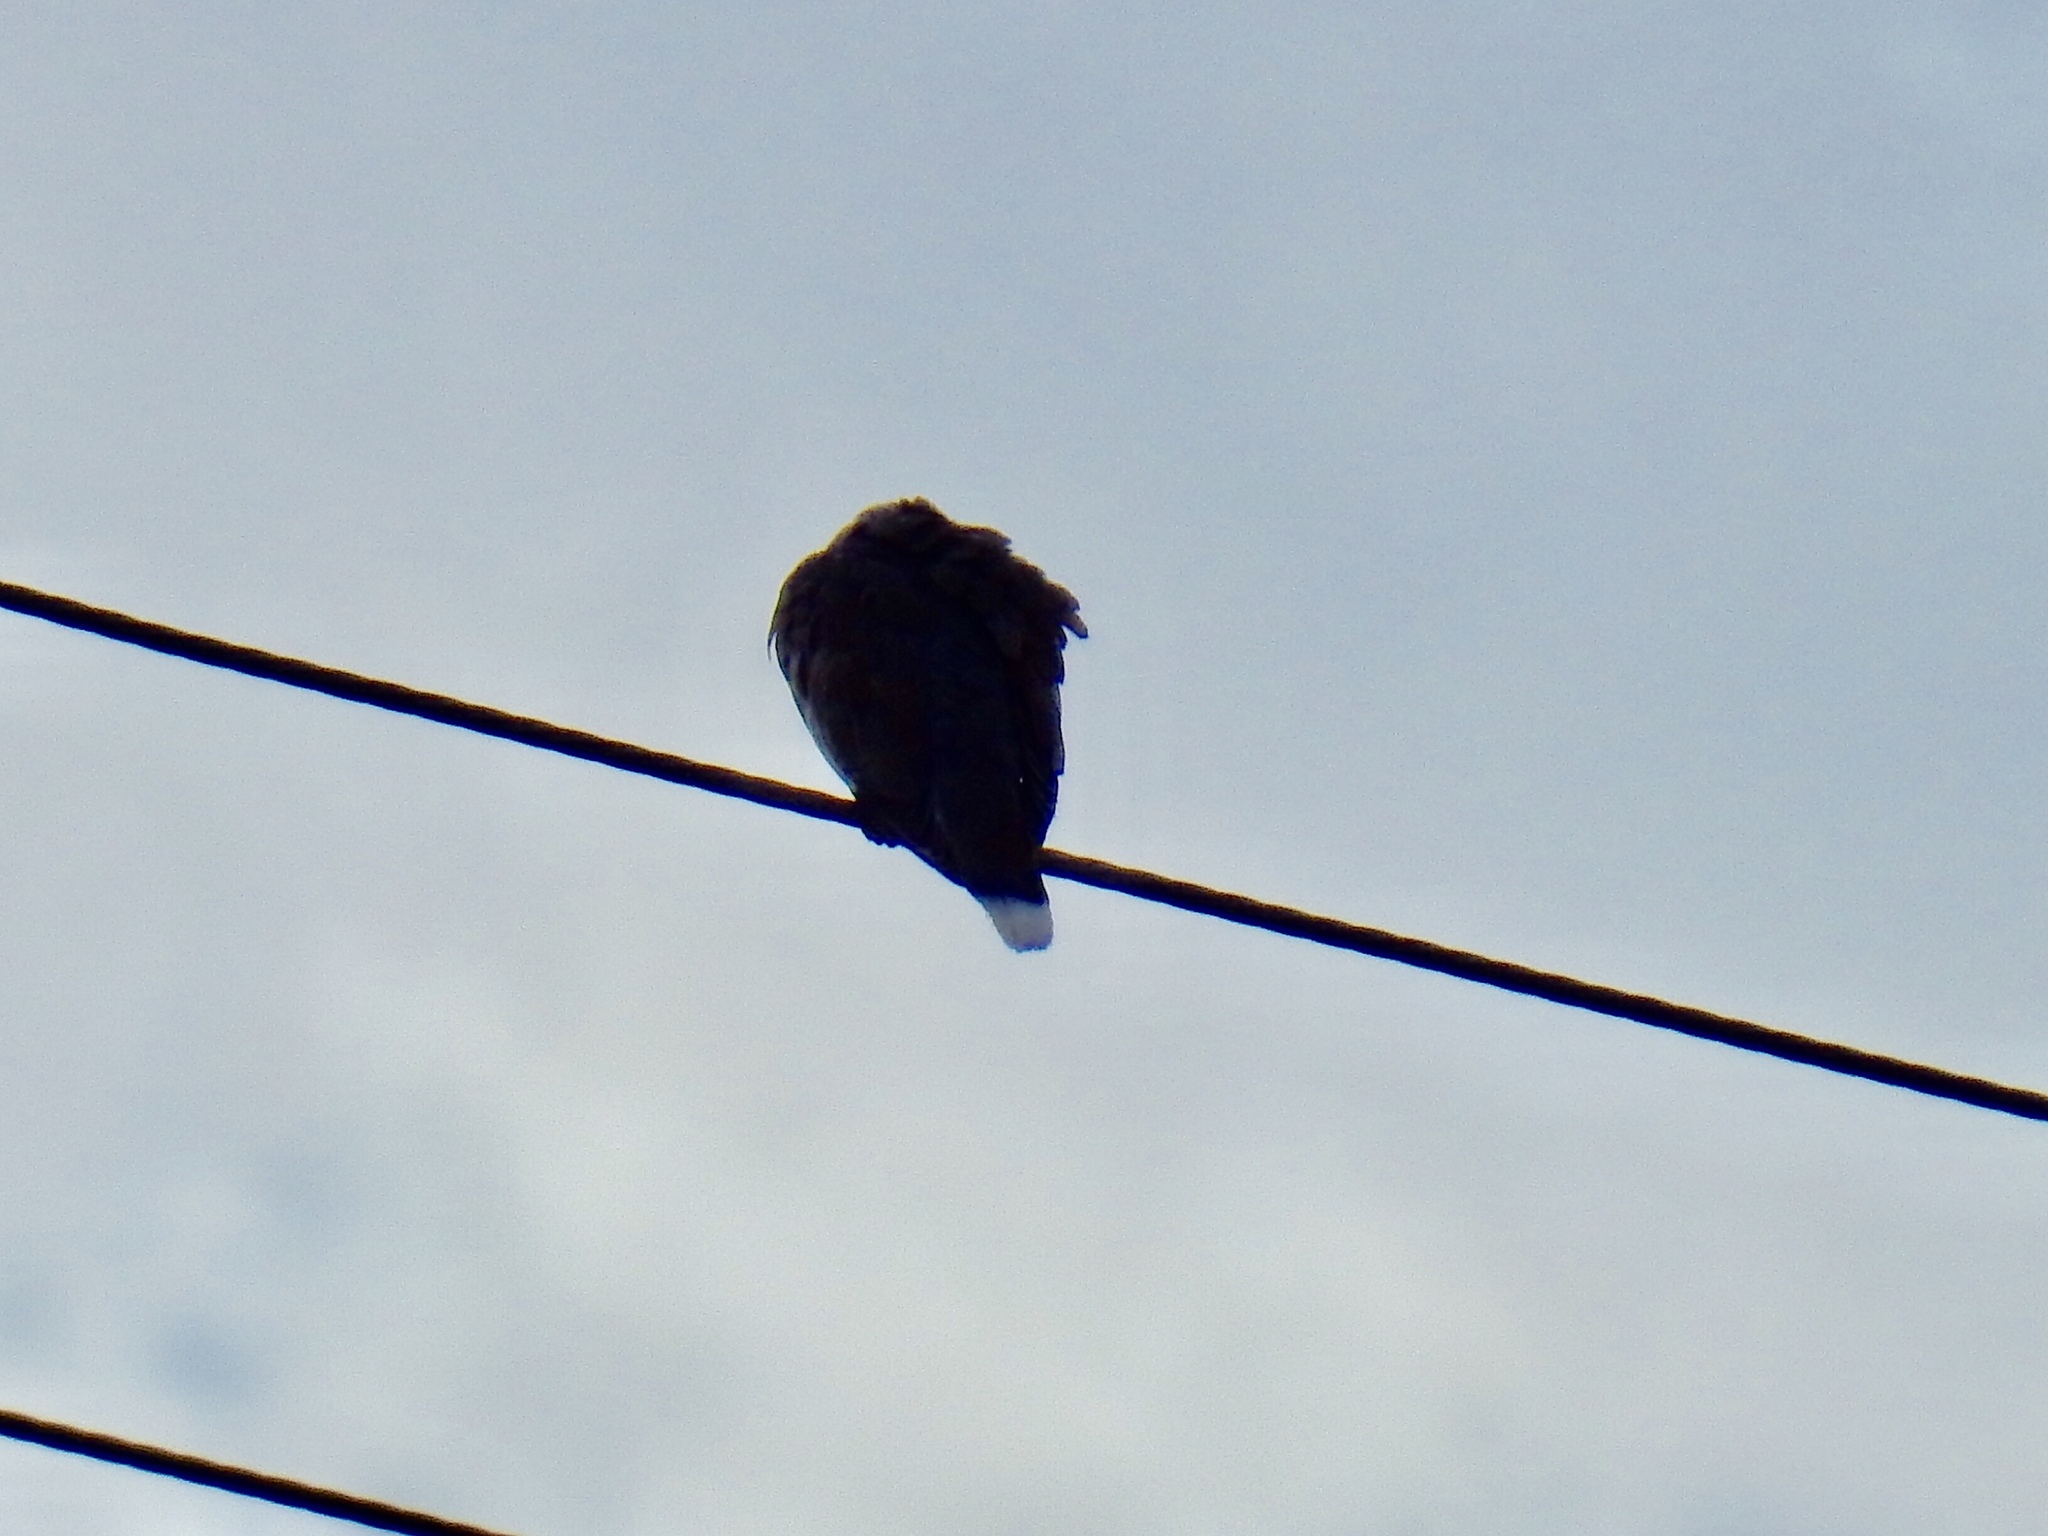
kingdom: Animalia
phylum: Chordata
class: Aves
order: Columbiformes
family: Columbidae
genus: Zenaida
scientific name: Zenaida asiatica
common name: White-winged dove
